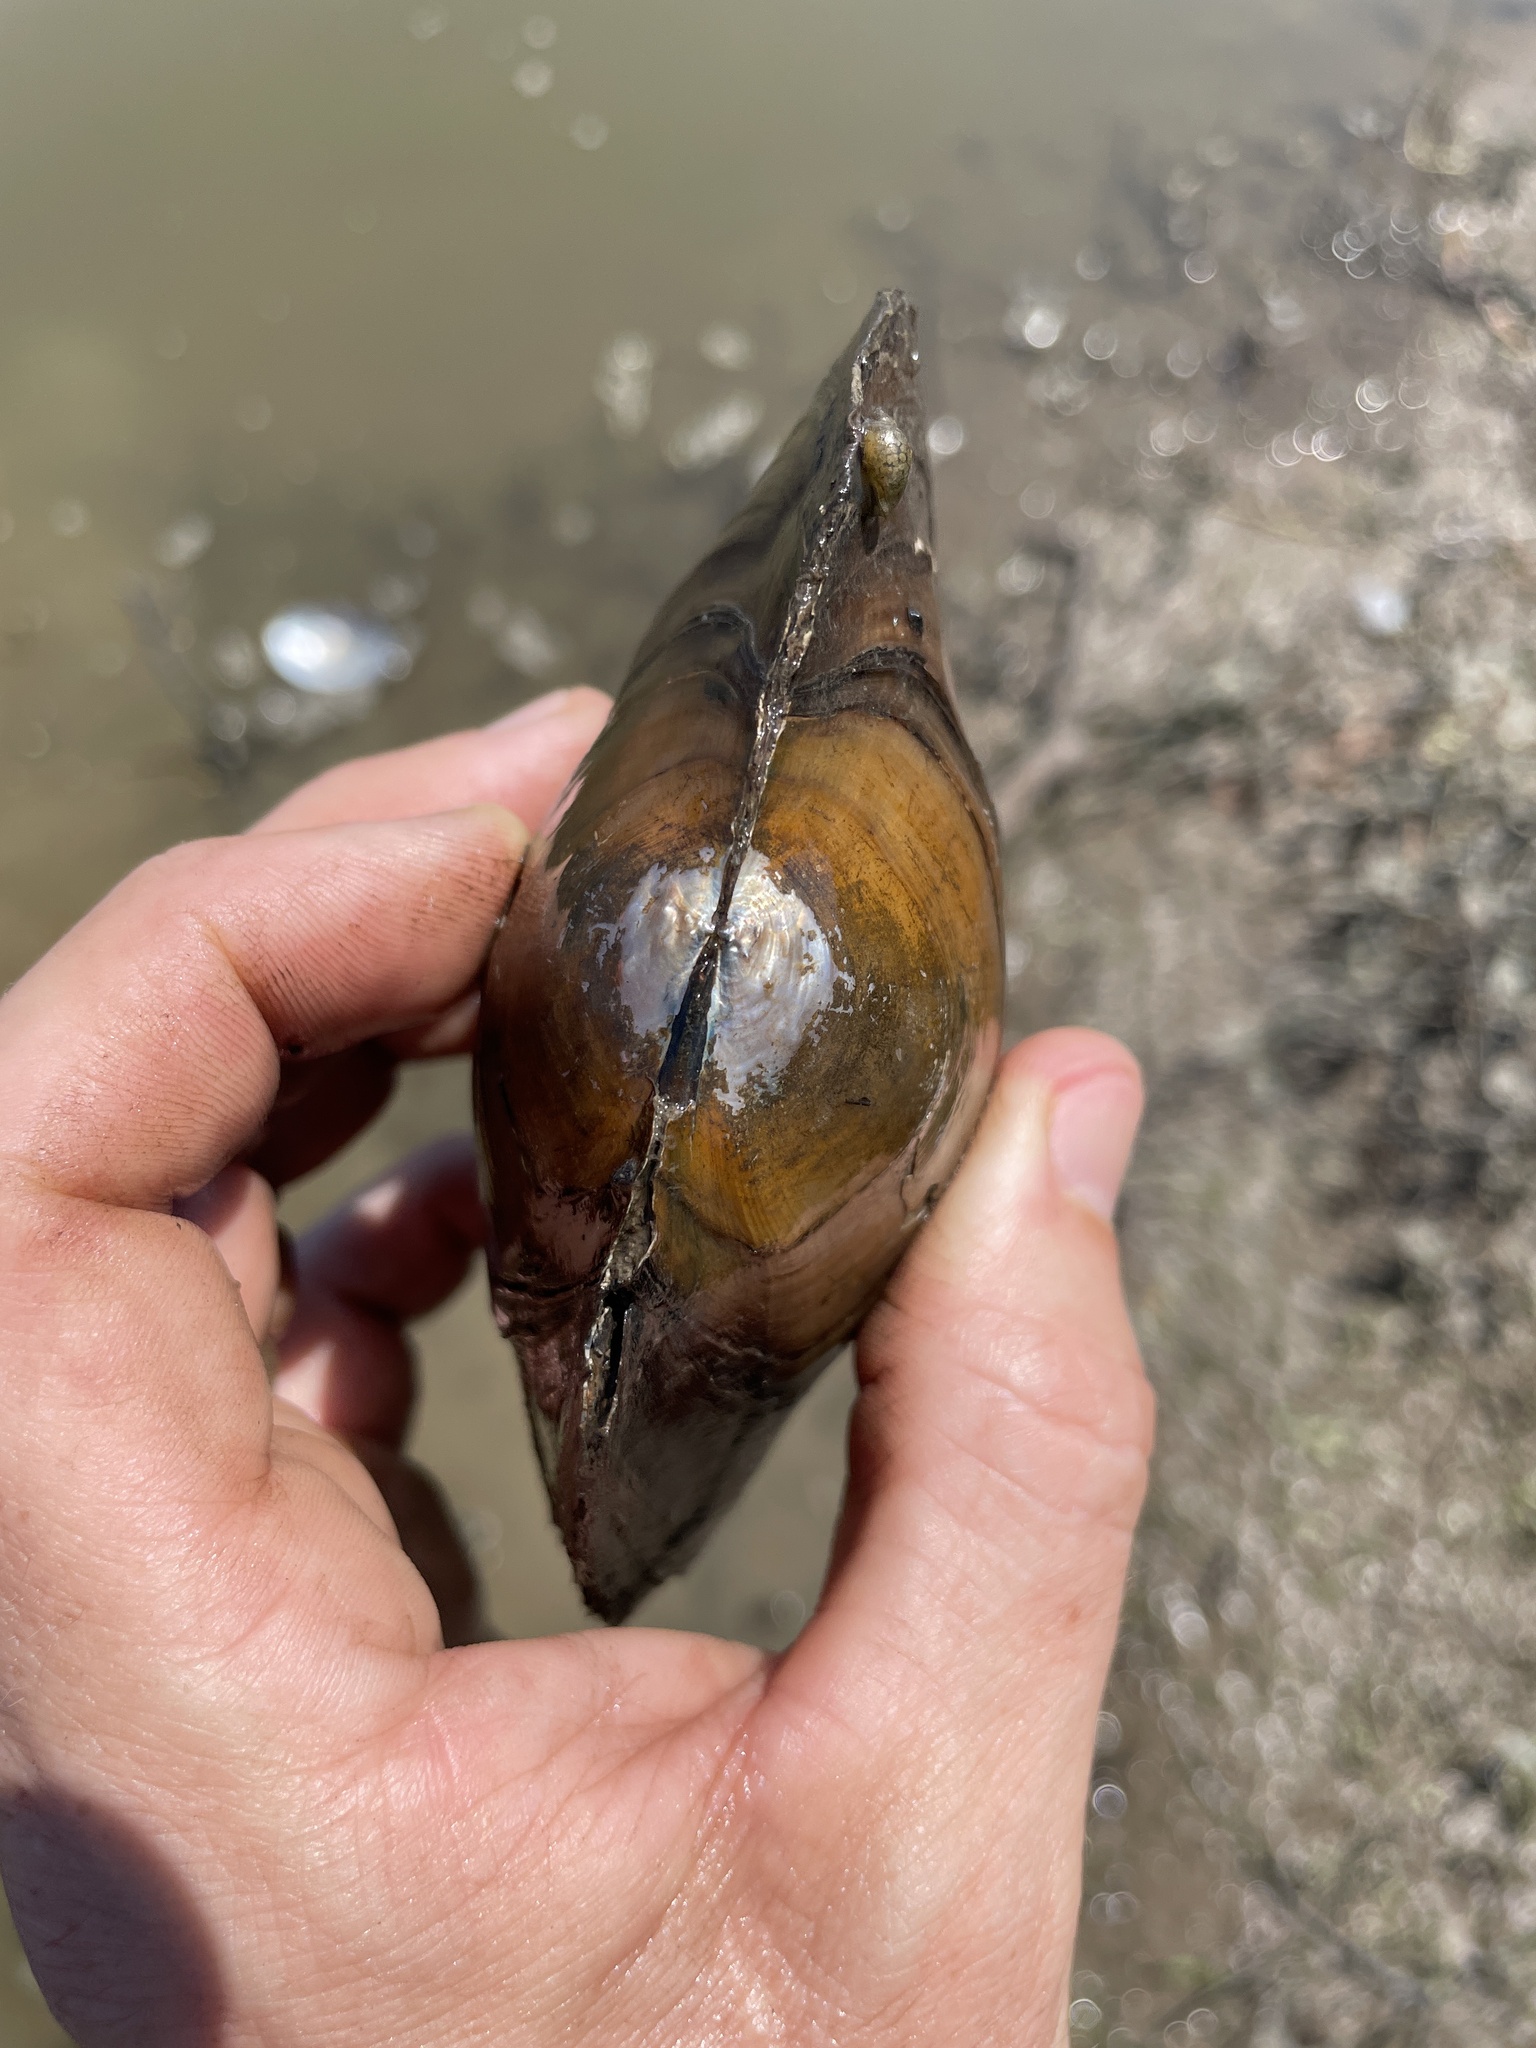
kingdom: Animalia
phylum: Mollusca
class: Bivalvia
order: Unionida
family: Unionidae
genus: Utterbackiana
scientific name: Utterbackiana suborbiculata
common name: Flat floater
